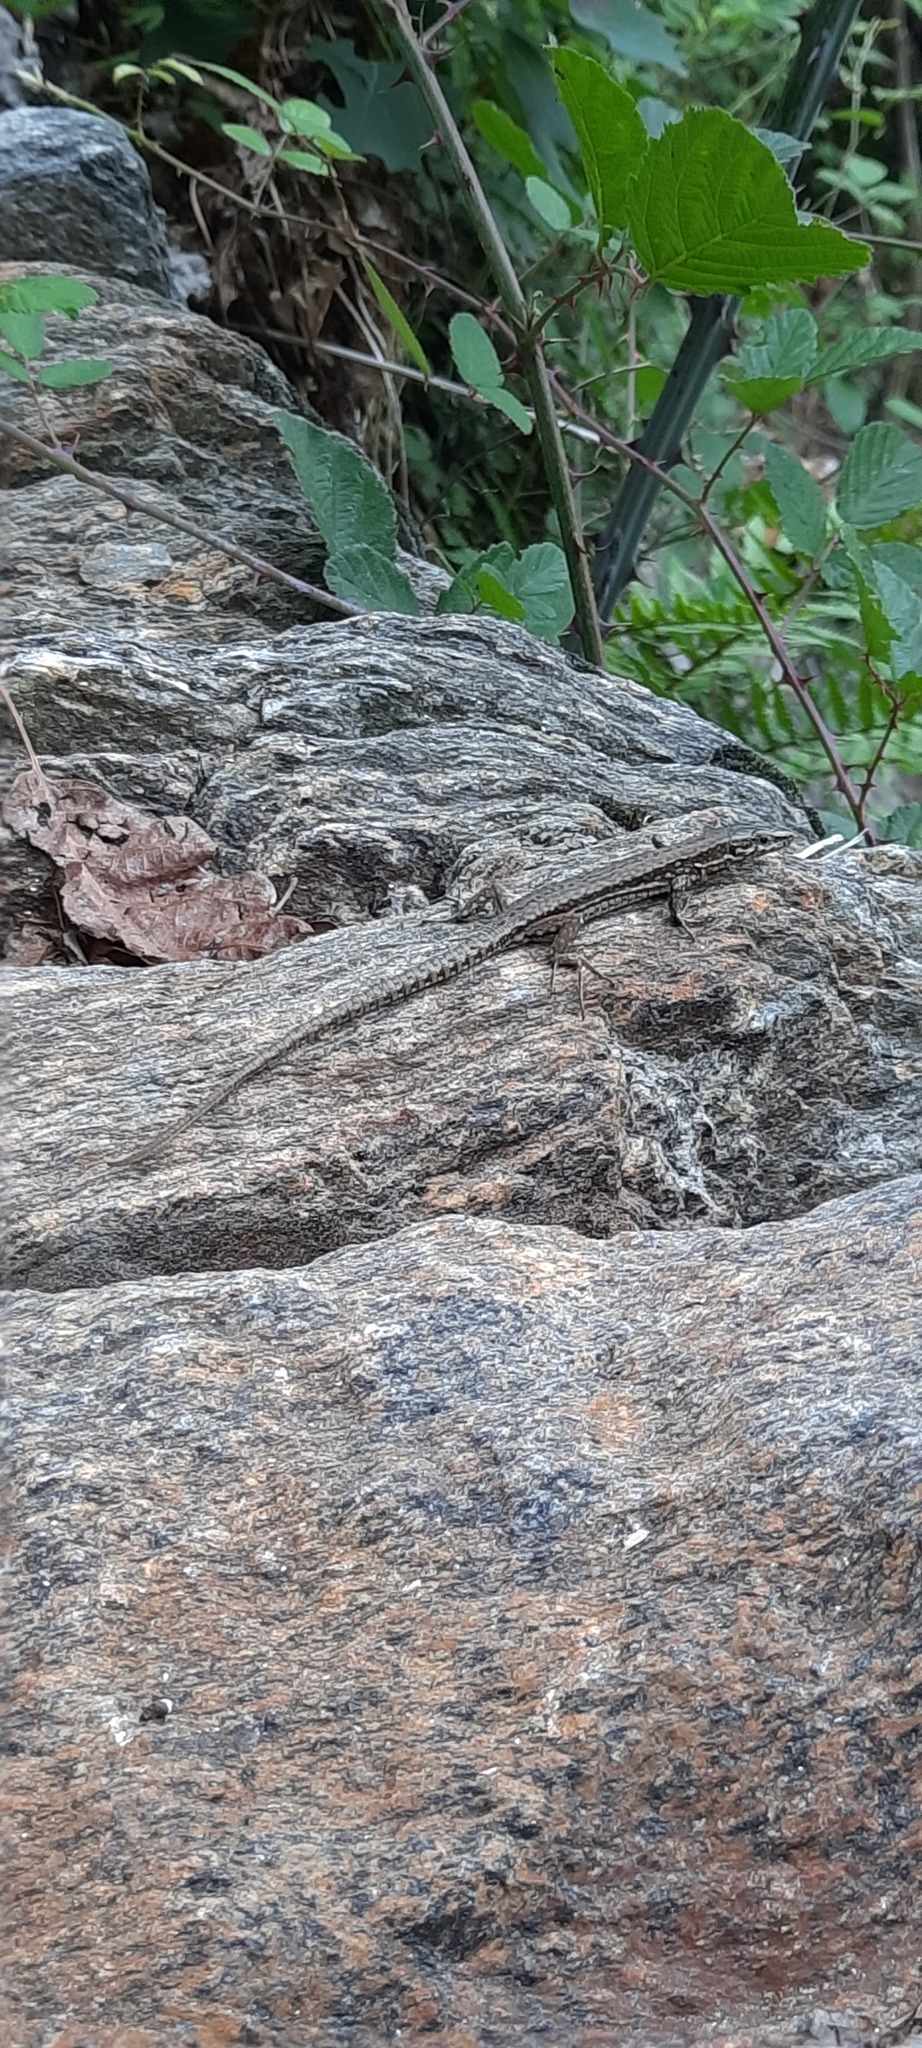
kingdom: Animalia
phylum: Chordata
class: Squamata
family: Lacertidae
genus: Podarcis
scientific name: Podarcis muralis
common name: Common wall lizard
